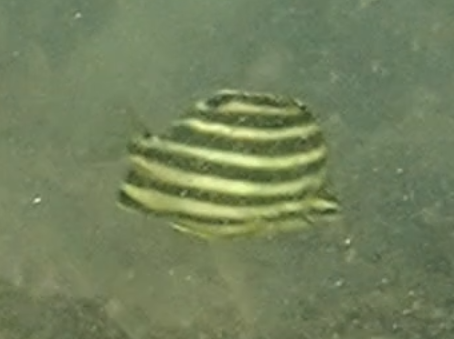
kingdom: Animalia
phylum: Chordata
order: Perciformes
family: Kyphosidae
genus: Microcanthus
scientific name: Microcanthus joyceae
